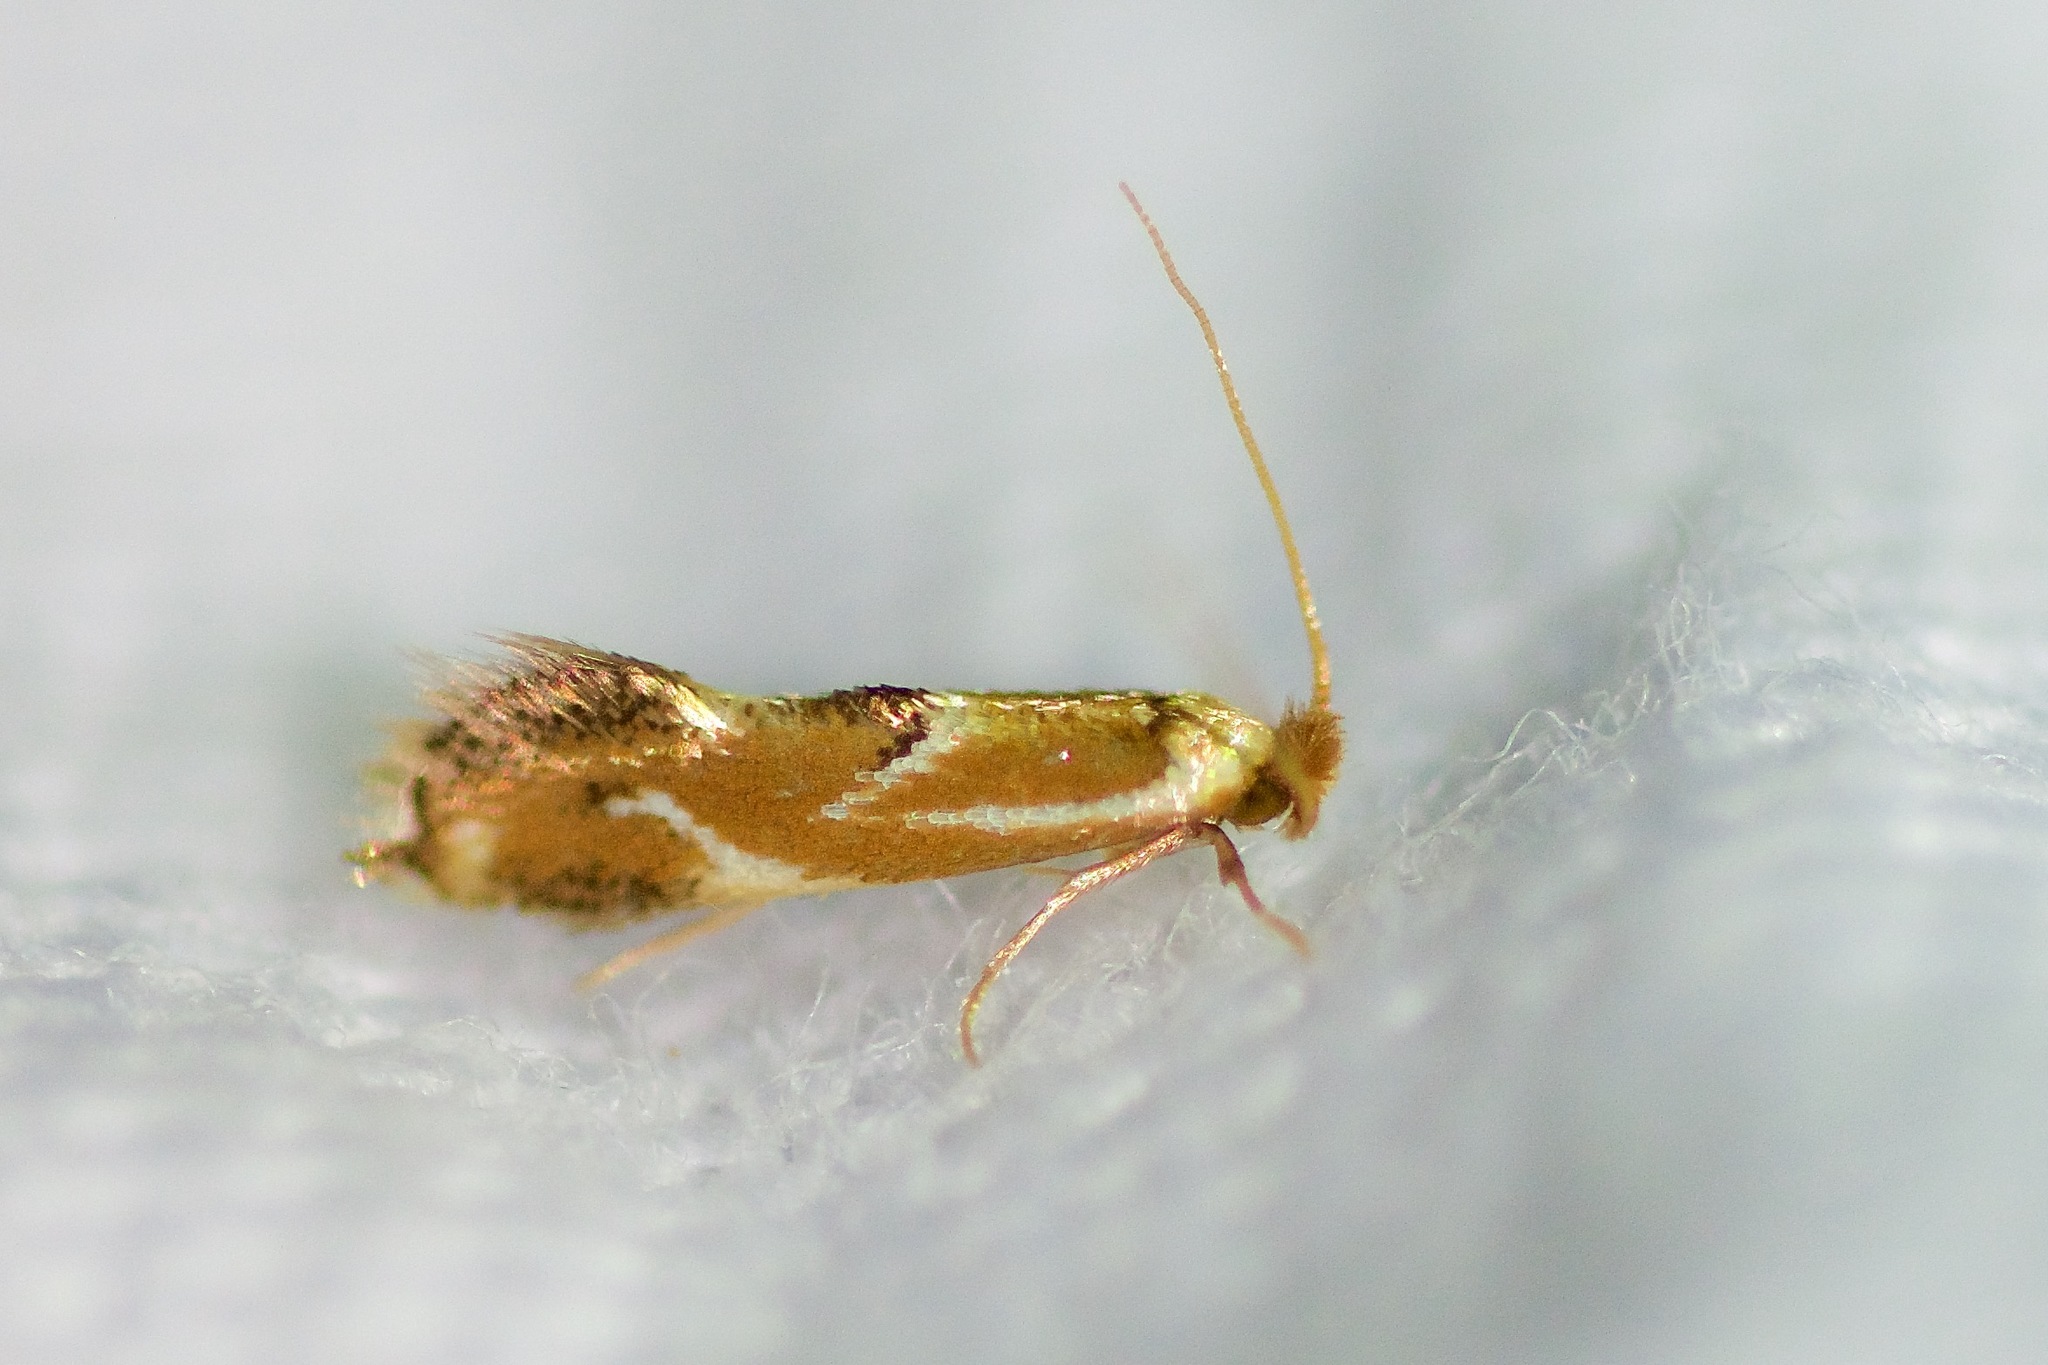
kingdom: Animalia
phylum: Arthropoda
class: Insecta
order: Lepidoptera
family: Lyonetiidae
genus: Philonome
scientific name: Philonome clemensella
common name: Clemen's philonome moth
